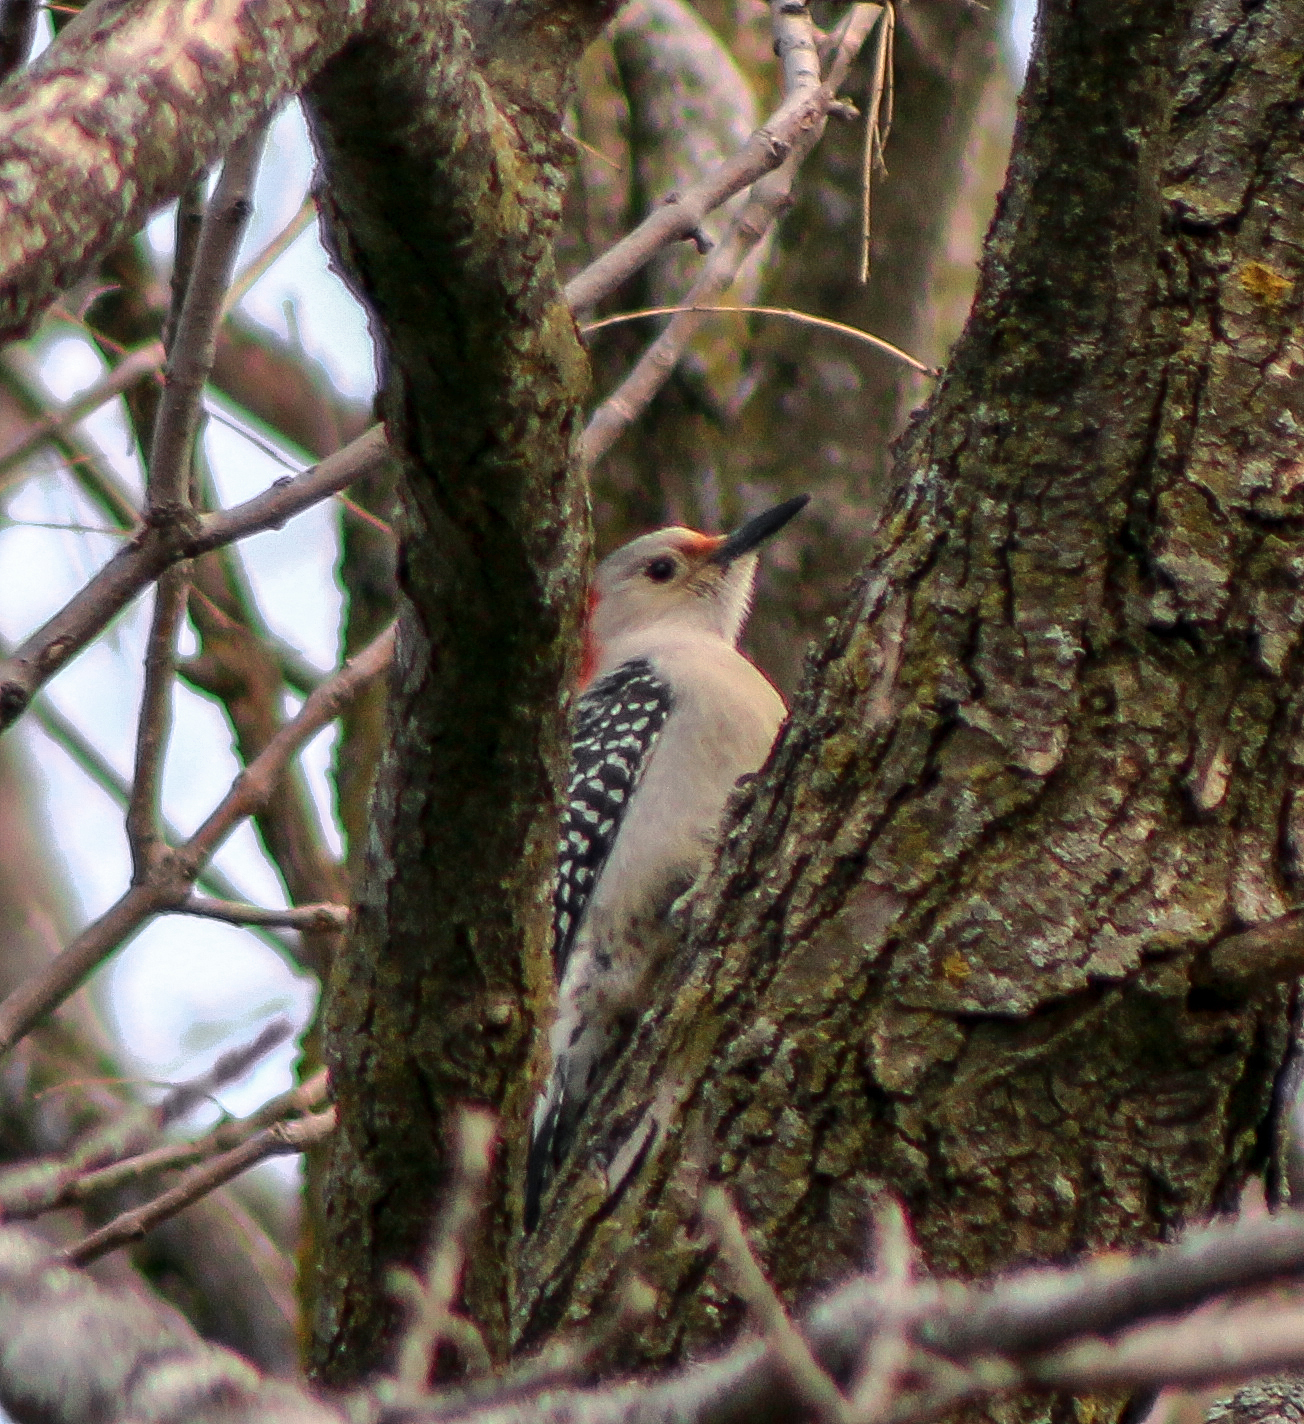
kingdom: Animalia
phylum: Chordata
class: Aves
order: Piciformes
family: Picidae
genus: Melanerpes
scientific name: Melanerpes carolinus
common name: Red-bellied woodpecker
